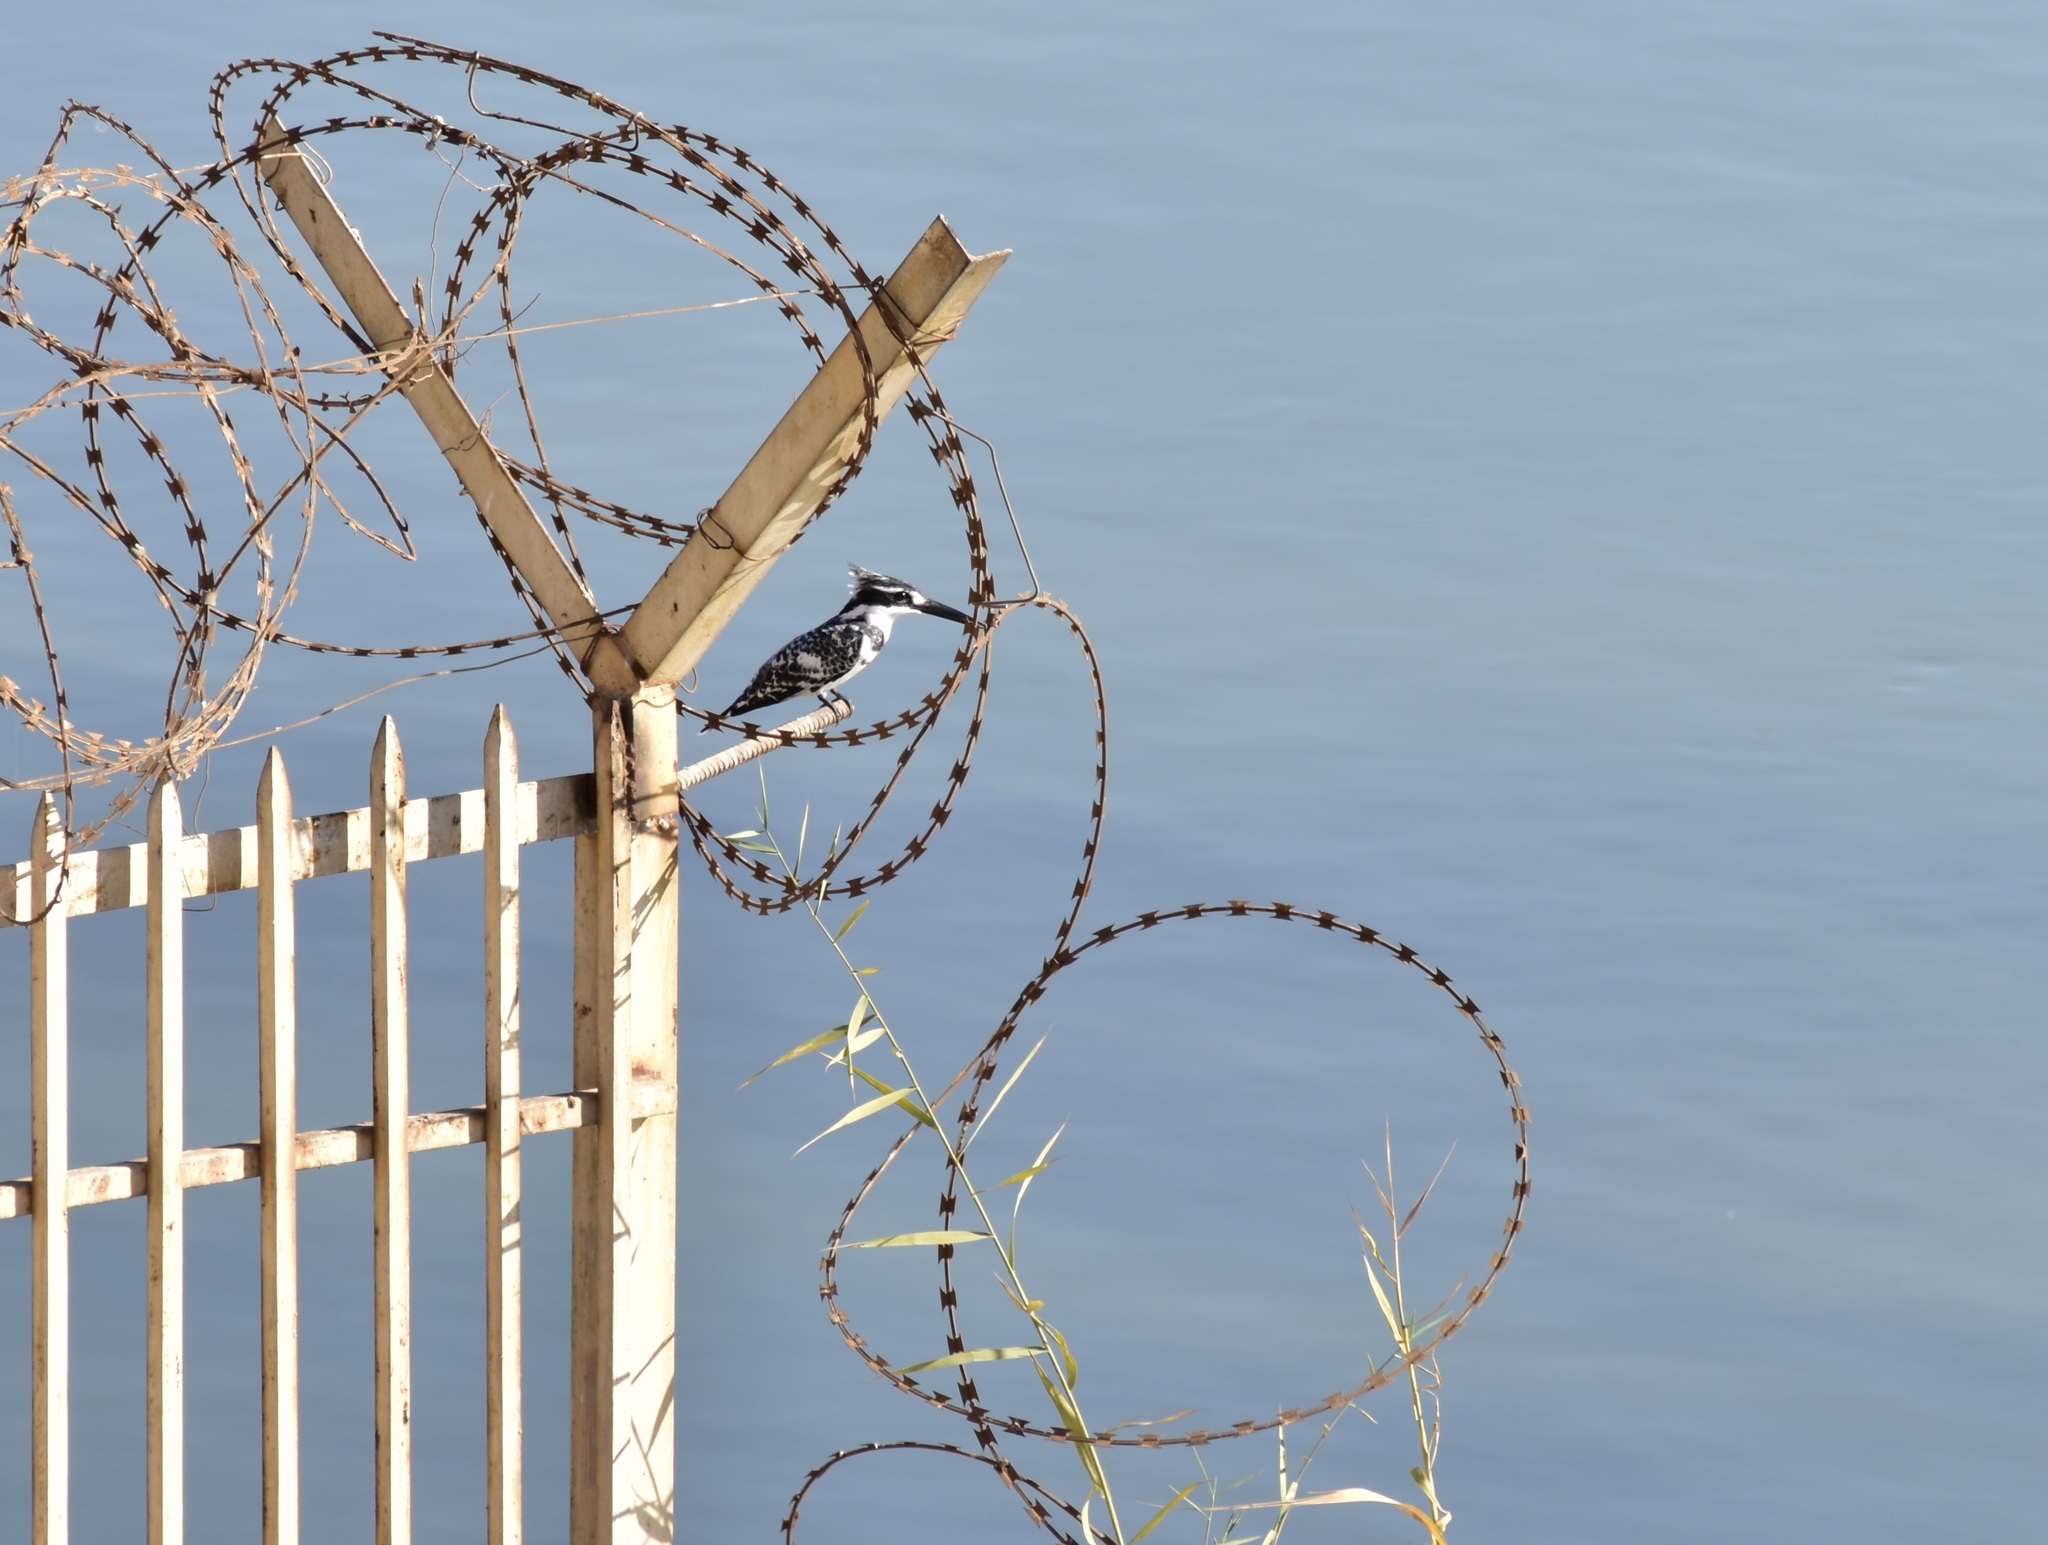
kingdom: Animalia
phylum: Chordata
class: Aves
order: Coraciiformes
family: Alcedinidae
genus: Ceryle
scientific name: Ceryle rudis
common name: Pied kingfisher
